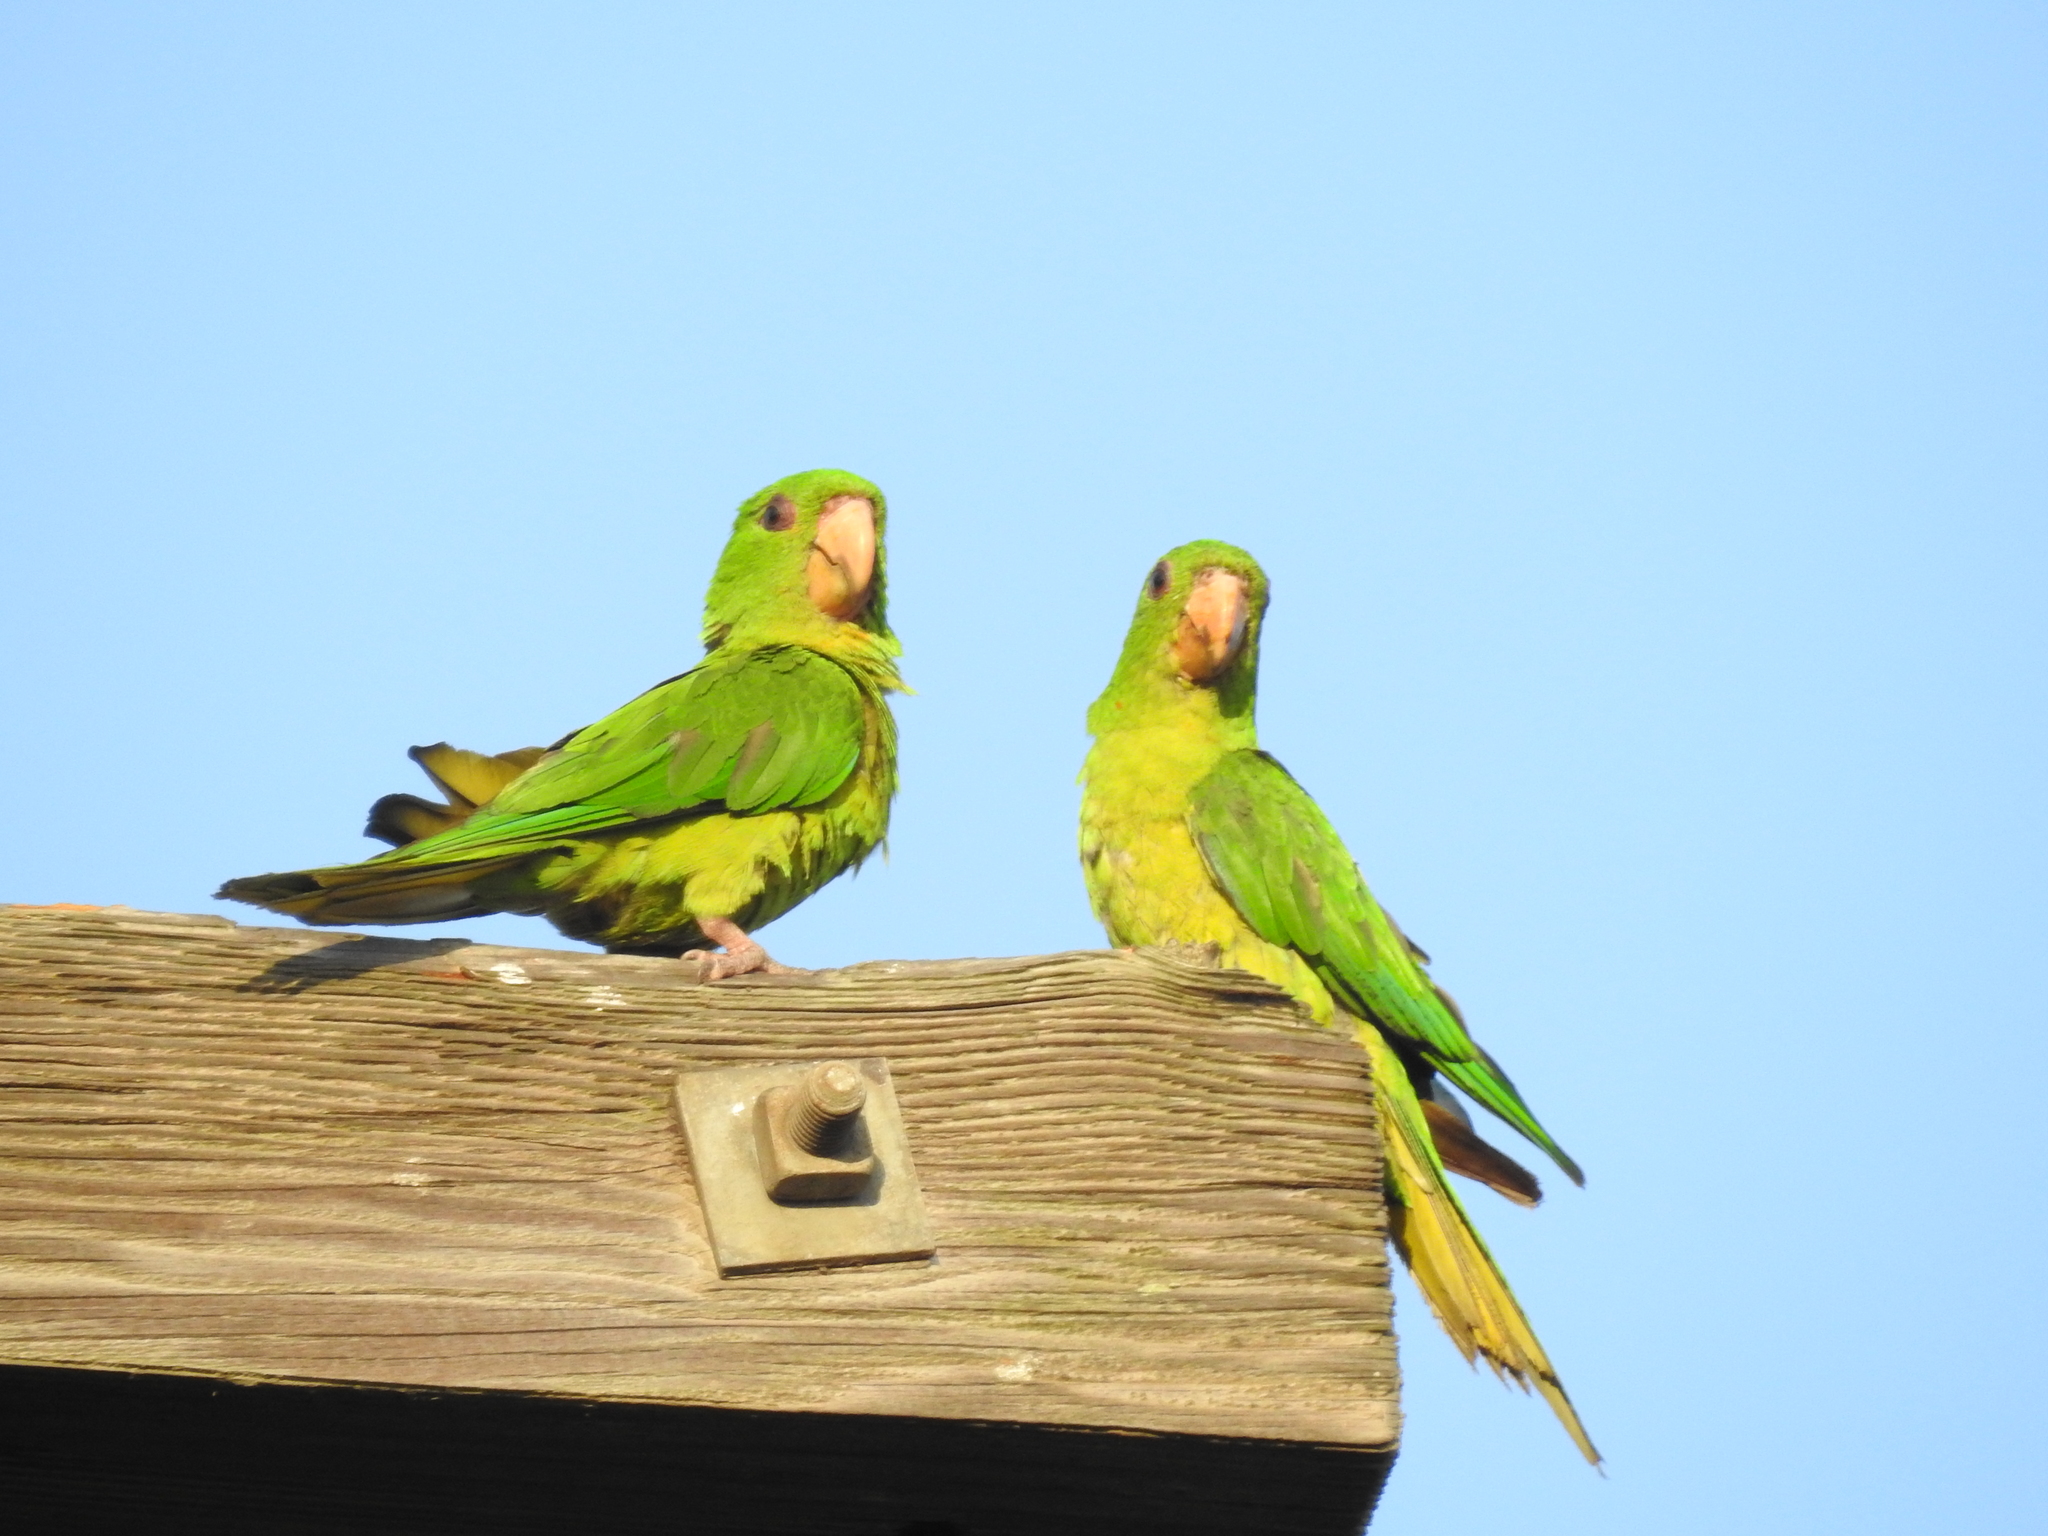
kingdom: Animalia
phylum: Chordata
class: Aves
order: Psittaciformes
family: Psittacidae
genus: Aratinga
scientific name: Aratinga holochlora
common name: Green parakeet
